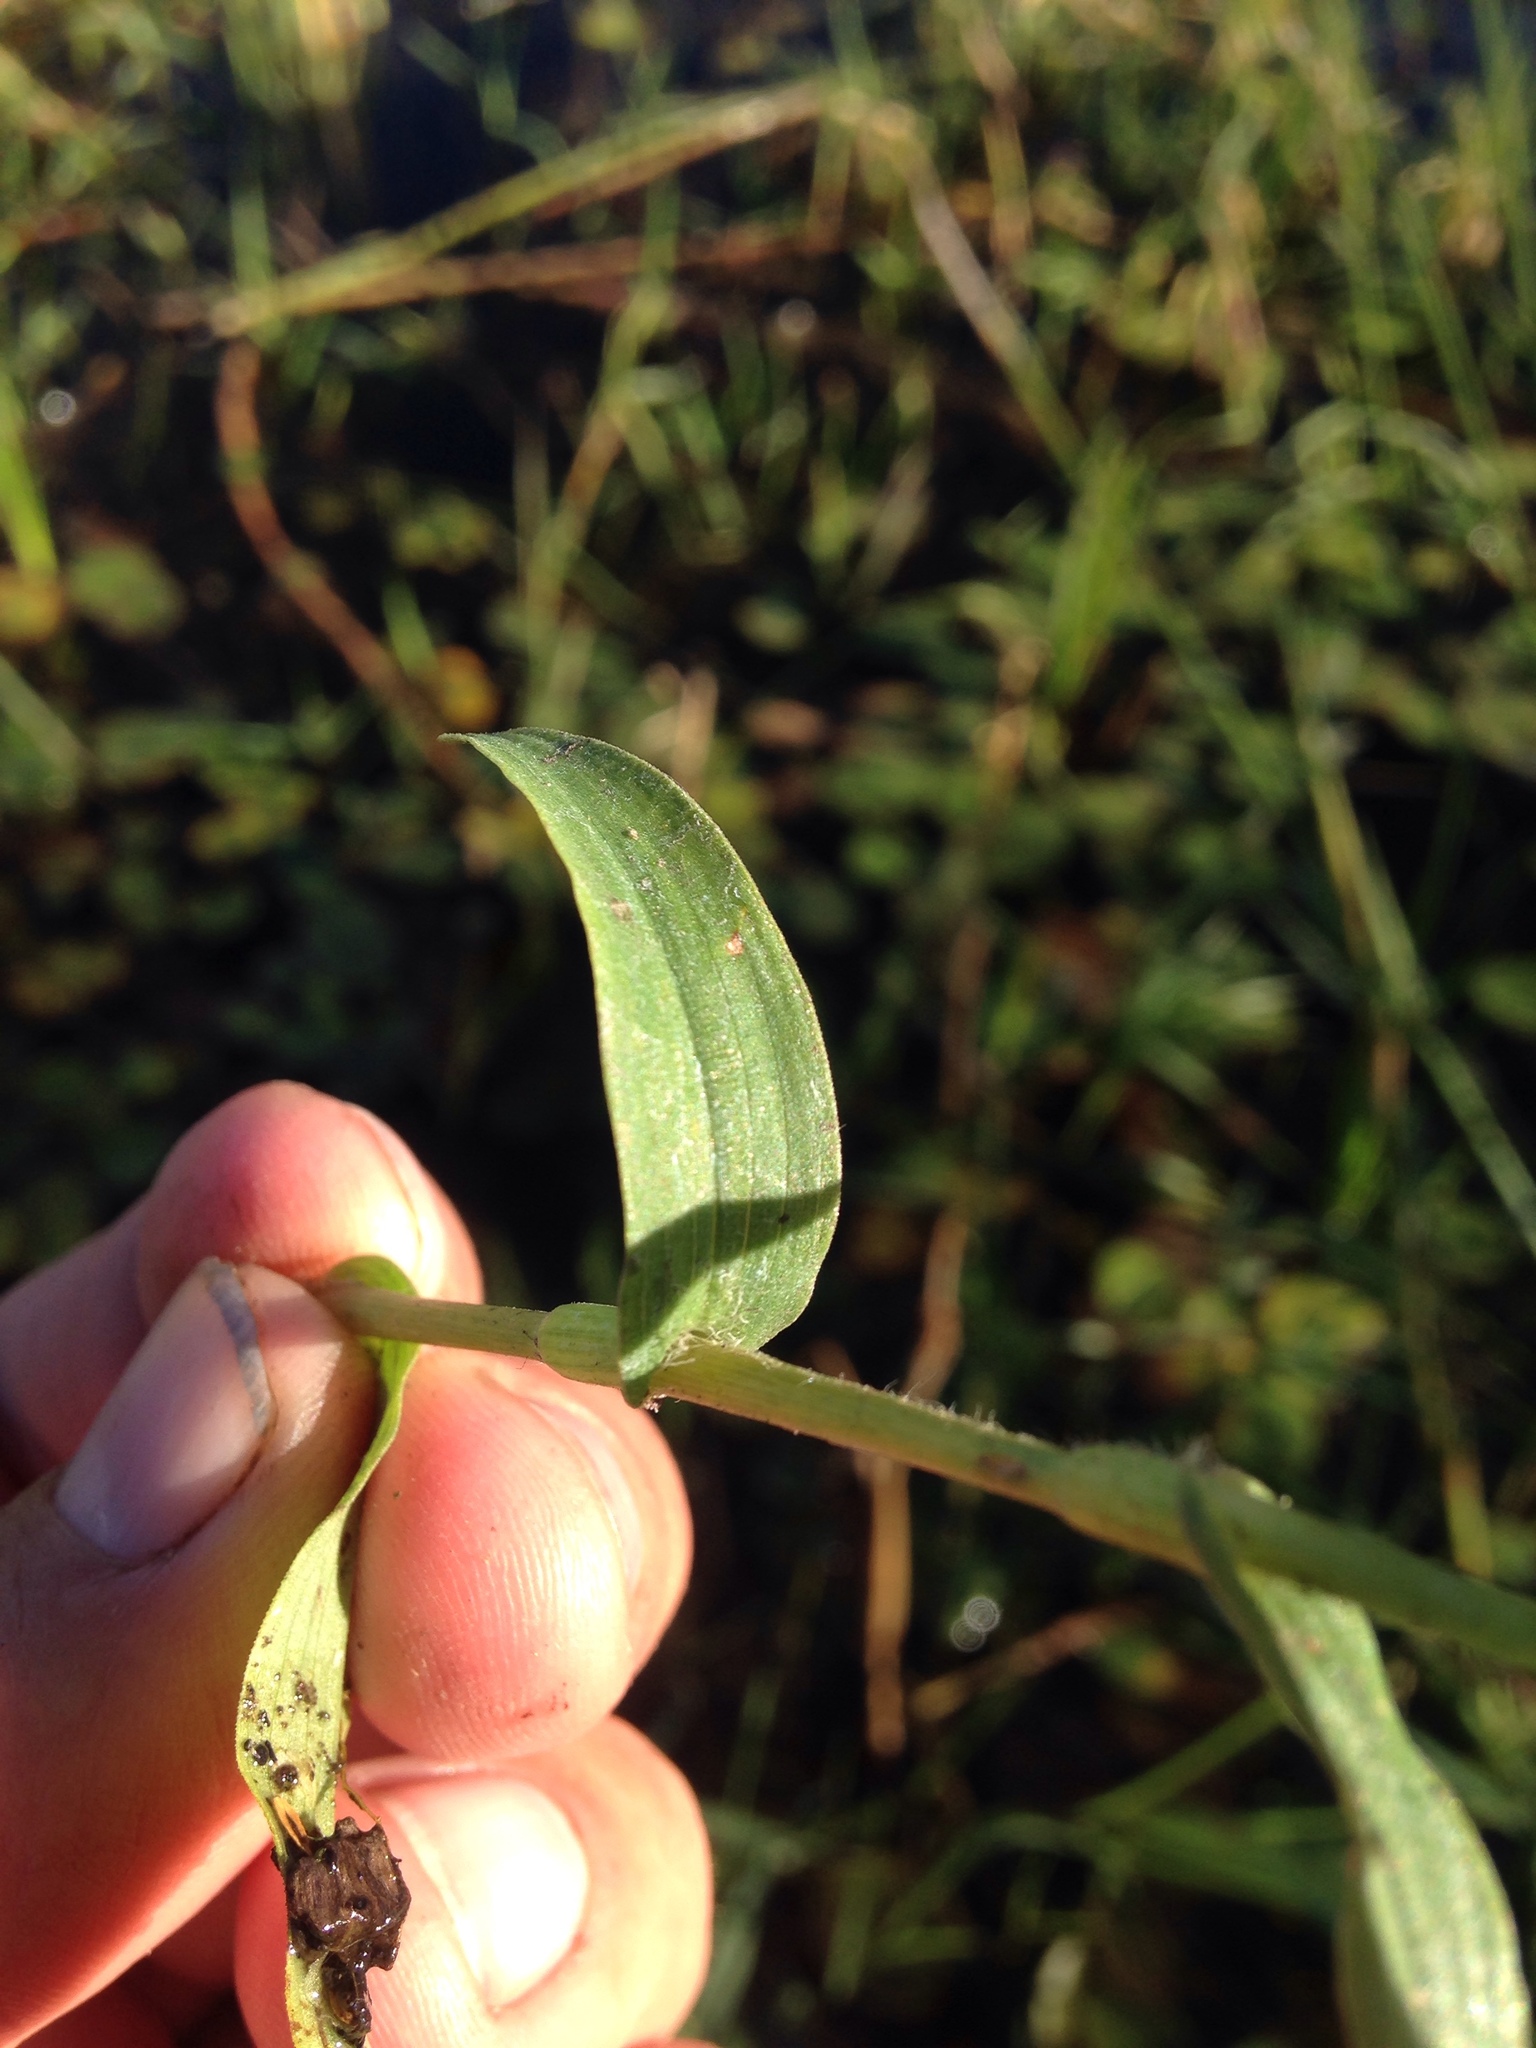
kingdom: Plantae
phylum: Tracheophyta
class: Liliopsida
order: Commelinales
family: Commelinaceae
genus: Floscopa
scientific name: Floscopa glomerata
